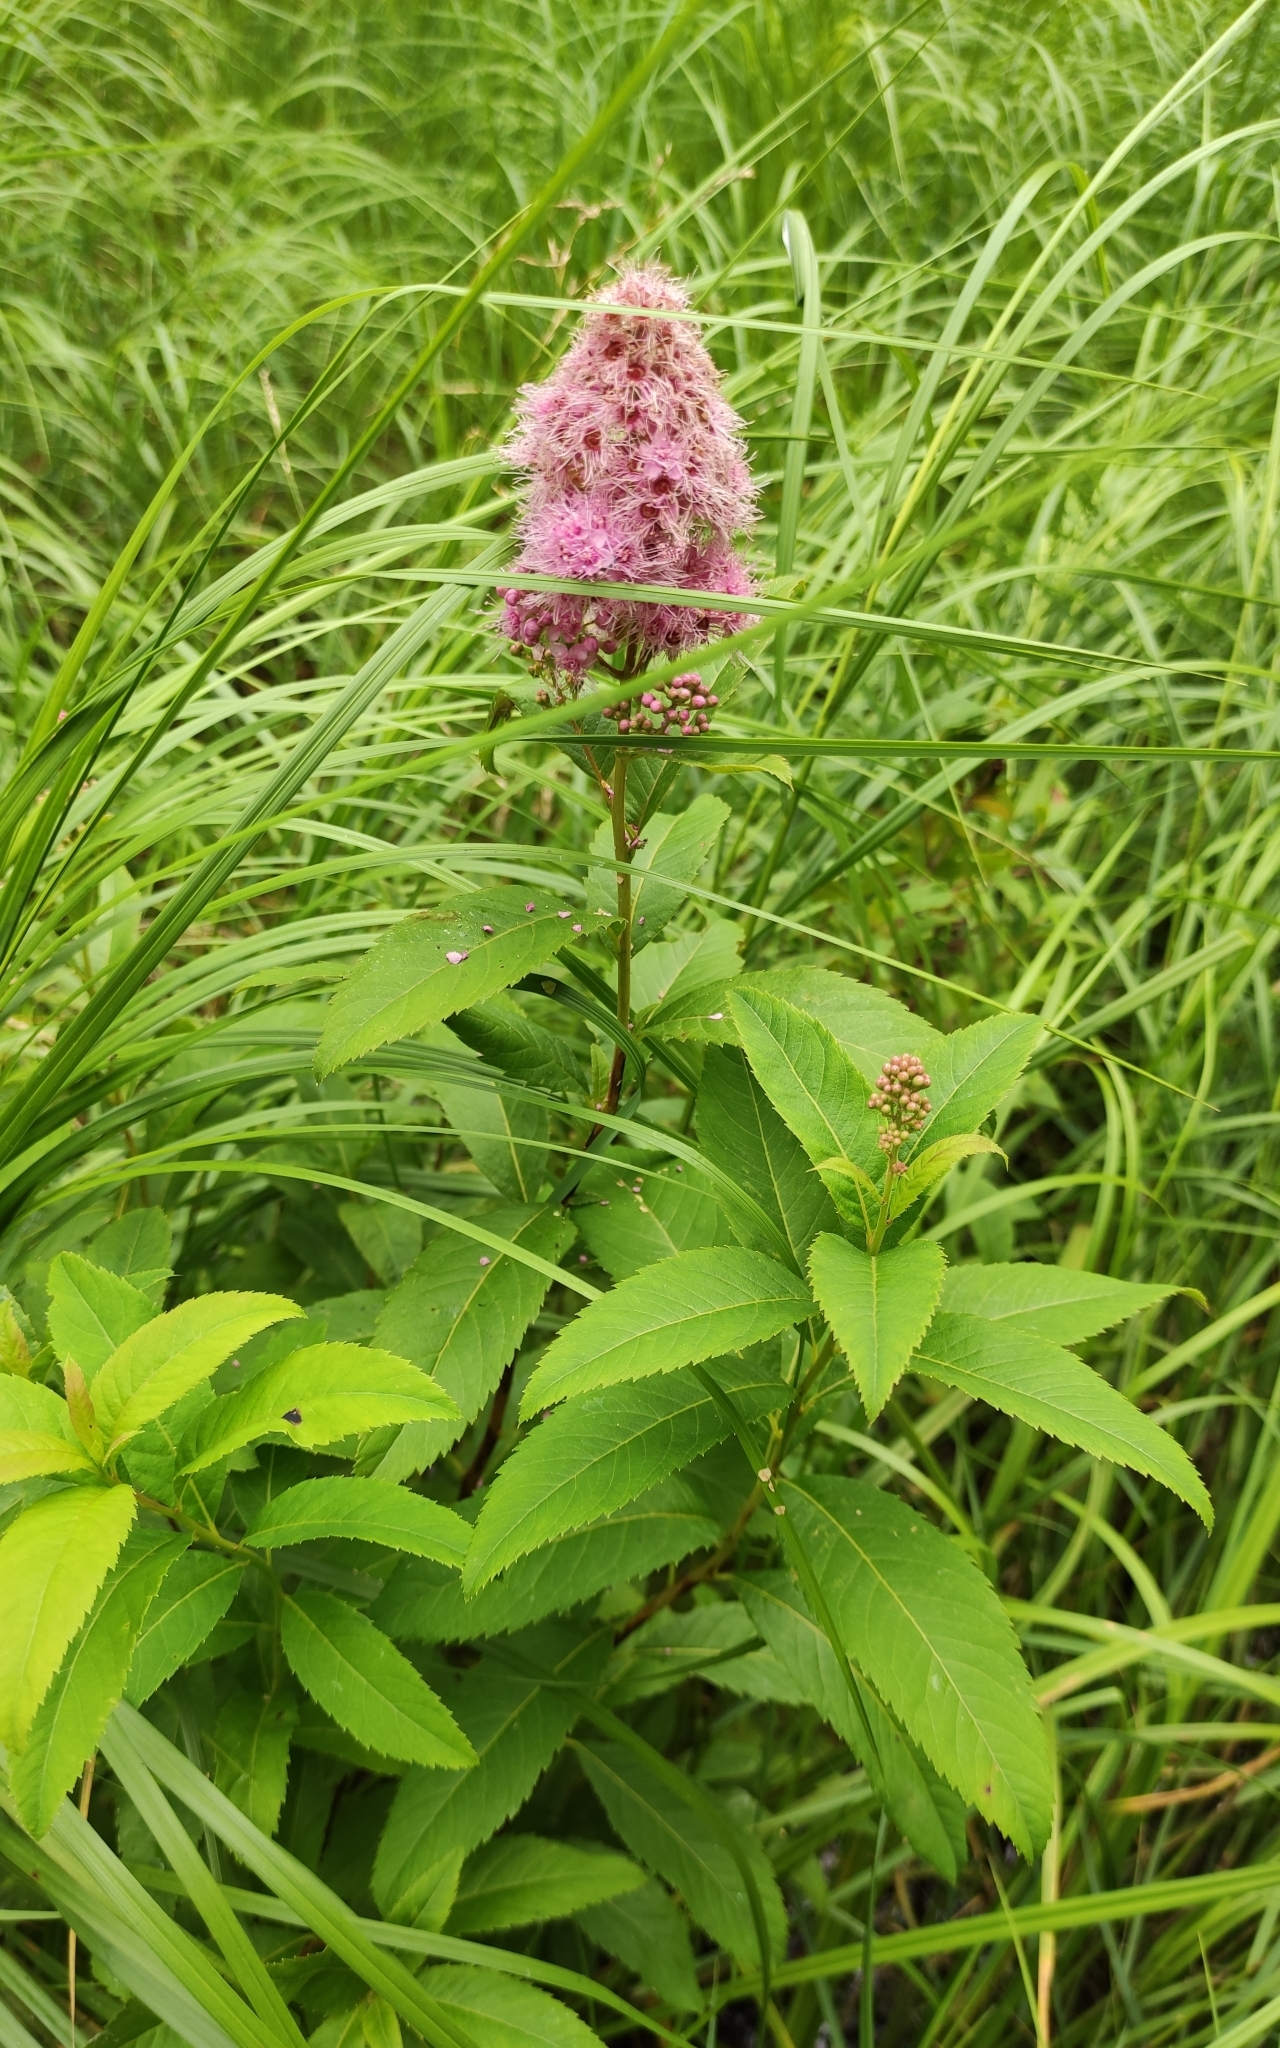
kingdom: Plantae
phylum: Tracheophyta
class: Magnoliopsida
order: Rosales
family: Rosaceae
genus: Spiraea
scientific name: Spiraea salicifolia
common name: Bridewort
